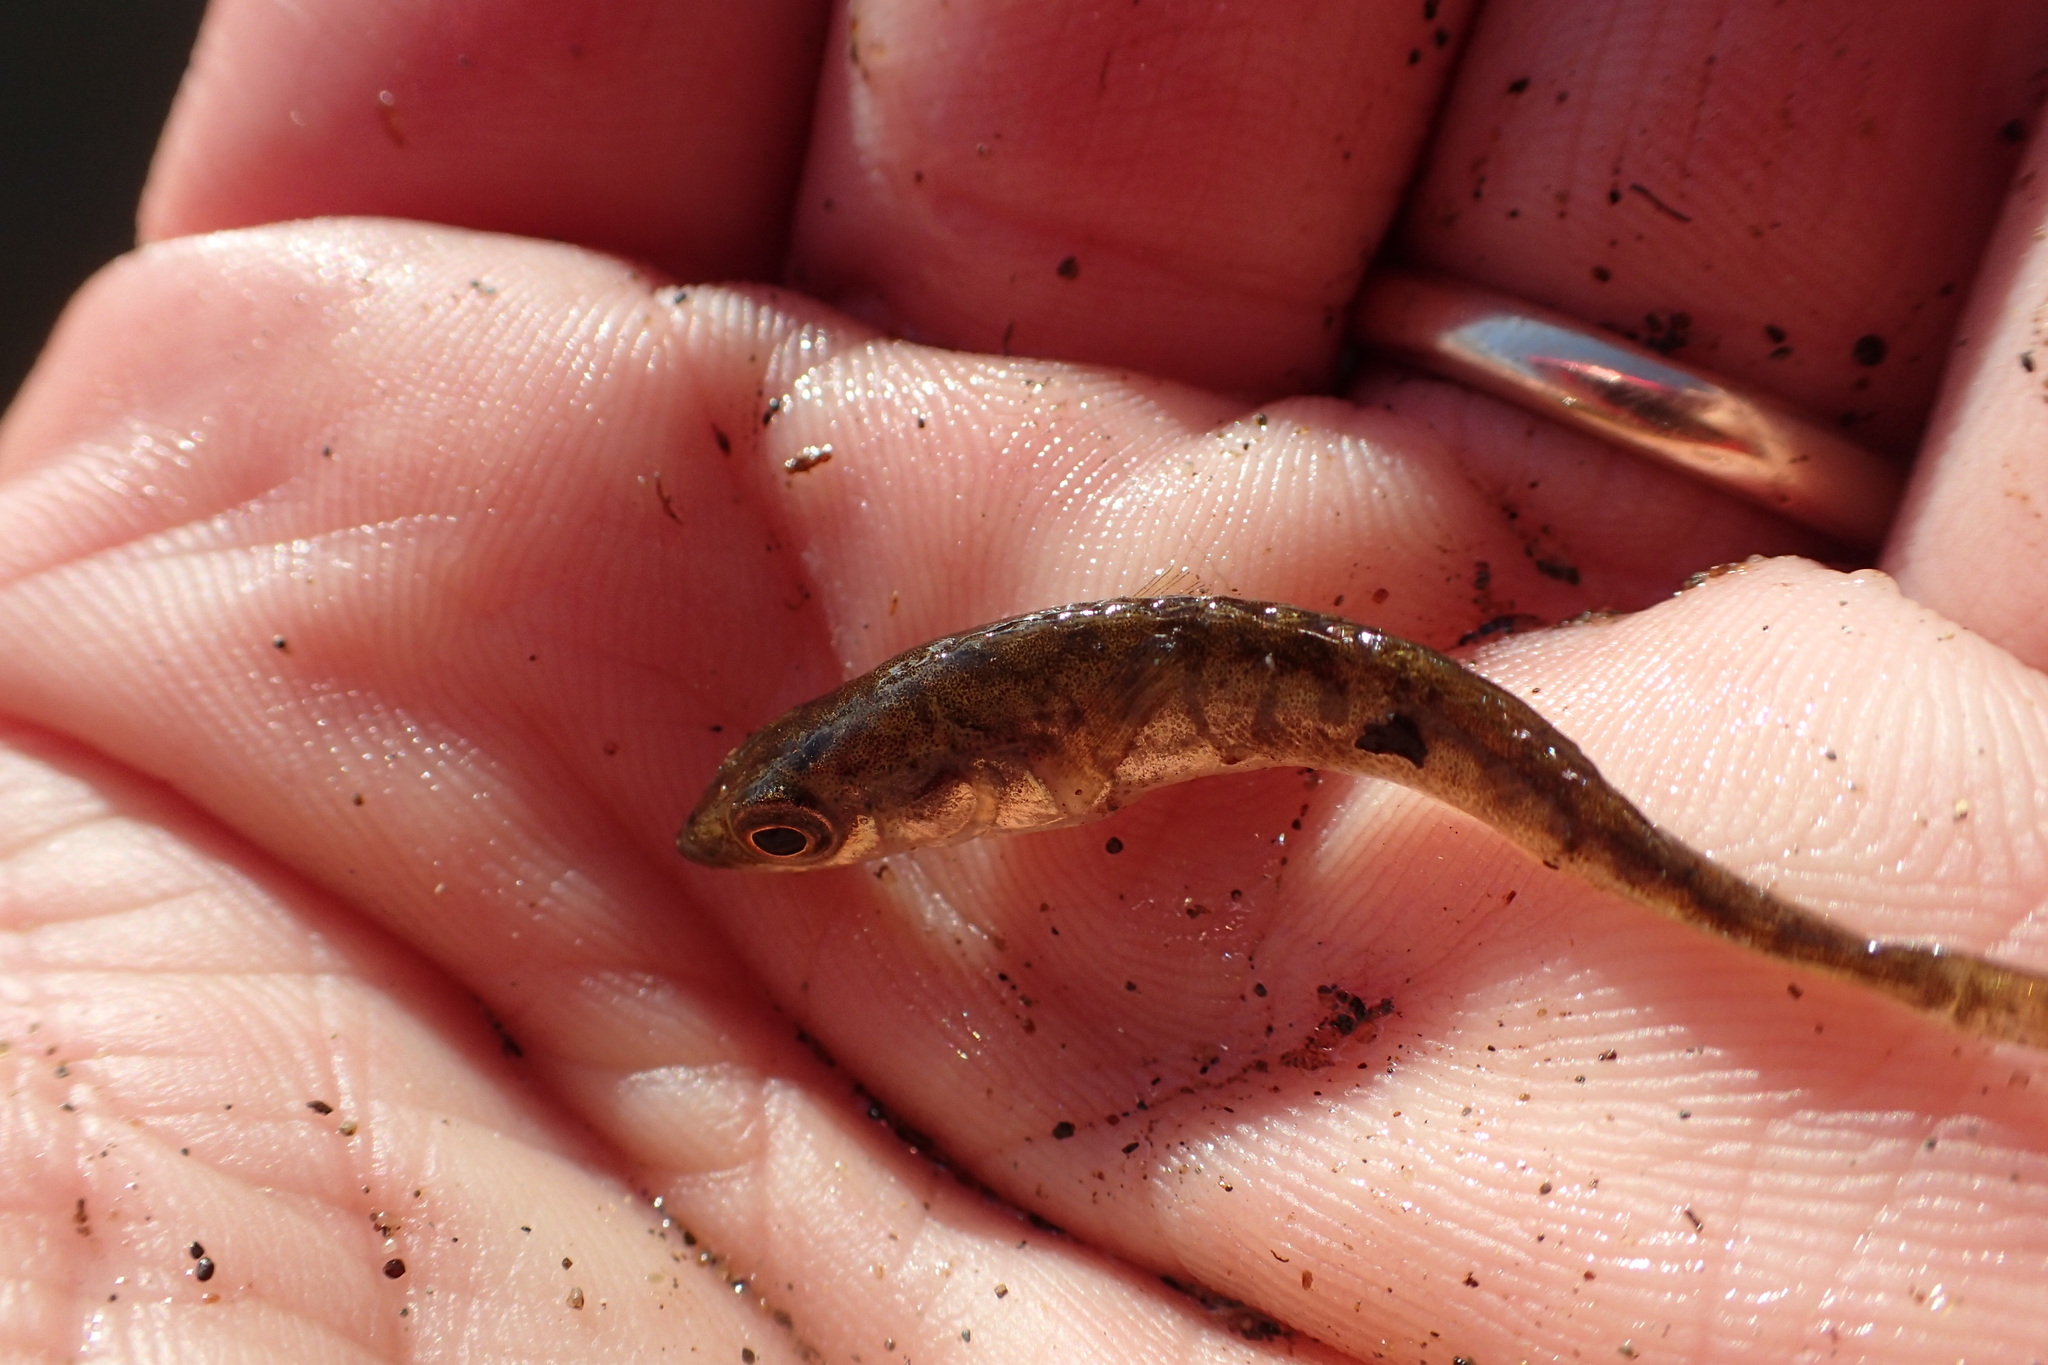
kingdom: Animalia
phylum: Chordata
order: Gasterosteiformes
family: Gasterosteidae
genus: Pungitius
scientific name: Pungitius pungitius
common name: Nine-spined stickleback
